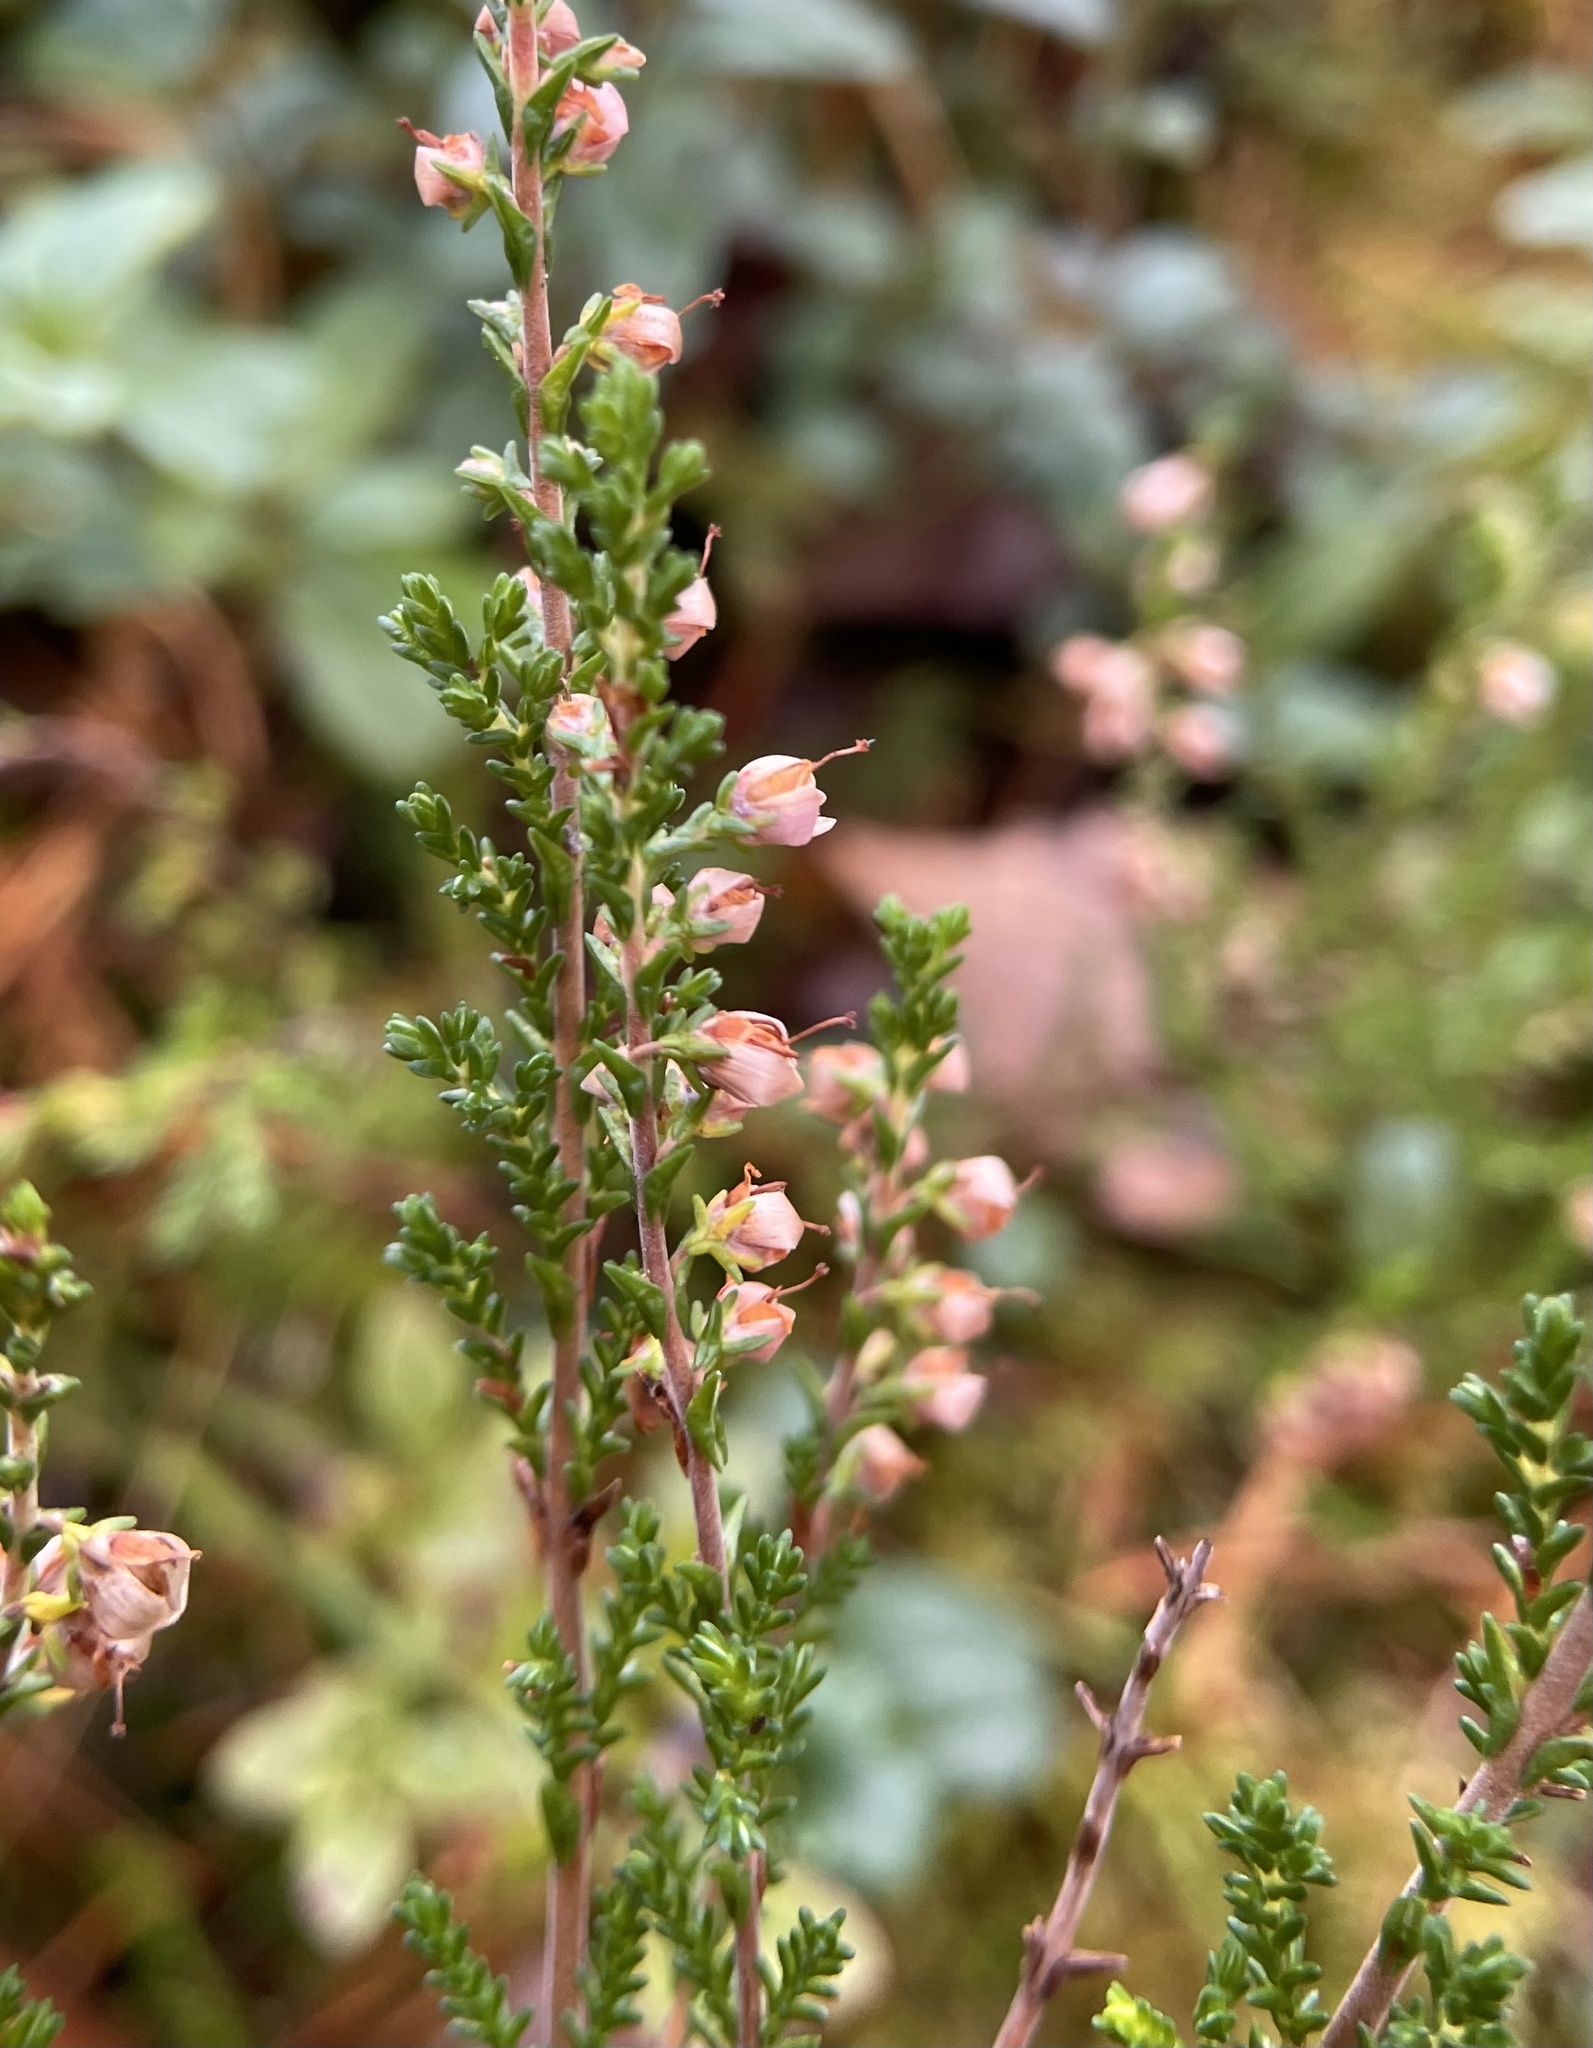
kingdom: Plantae
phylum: Tracheophyta
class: Magnoliopsida
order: Ericales
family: Ericaceae
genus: Calluna
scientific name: Calluna vulgaris
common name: Heather
